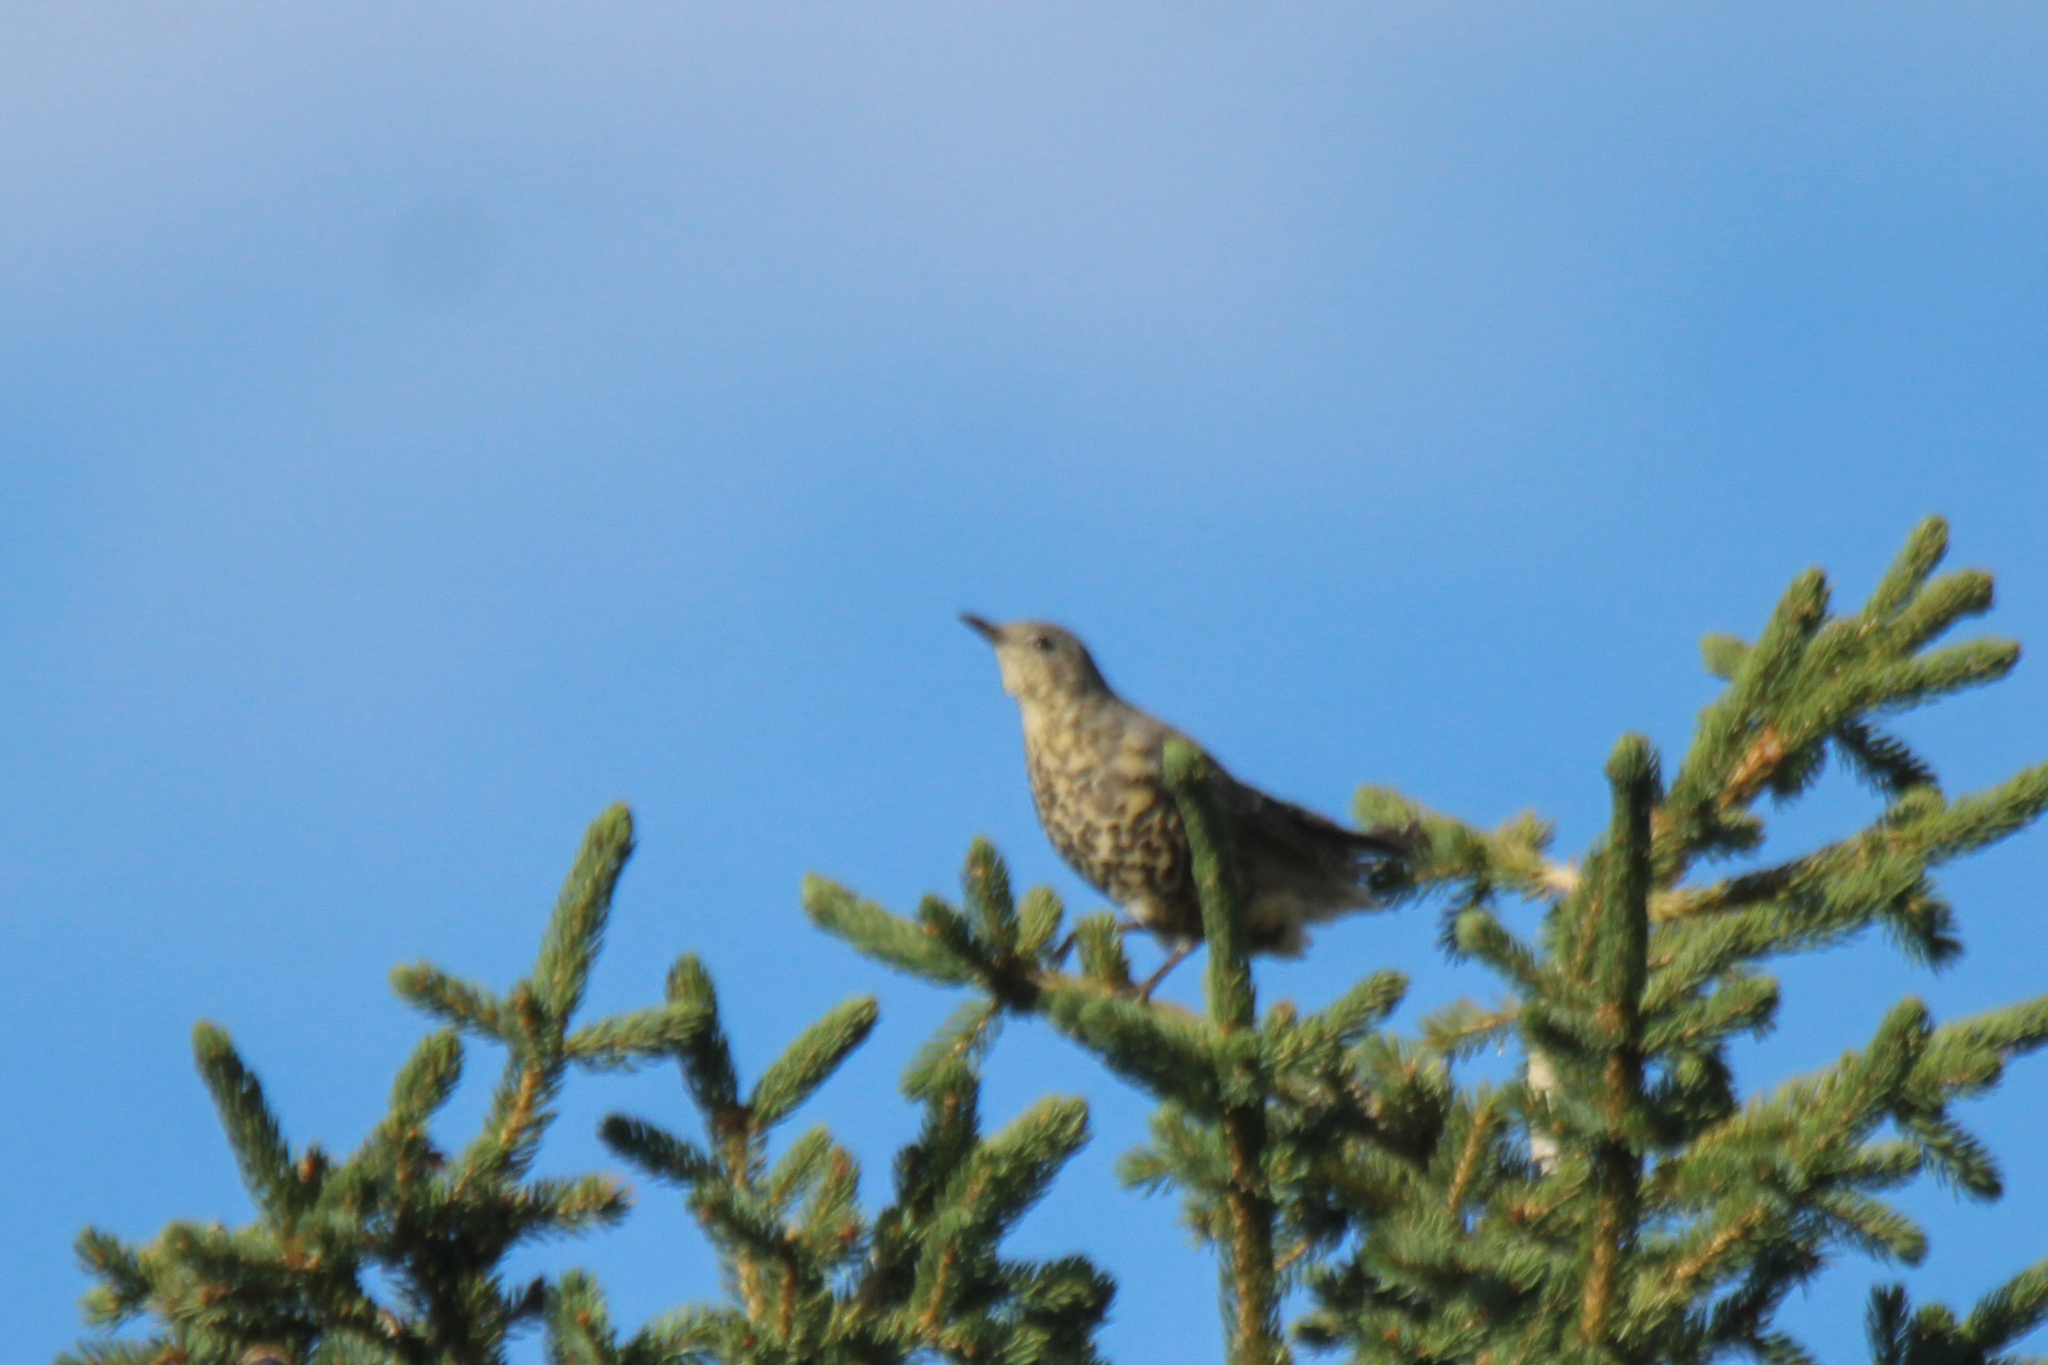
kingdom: Animalia
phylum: Chordata
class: Aves
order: Passeriformes
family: Turdidae
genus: Turdus
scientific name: Turdus viscivorus
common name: Mistle thrush
